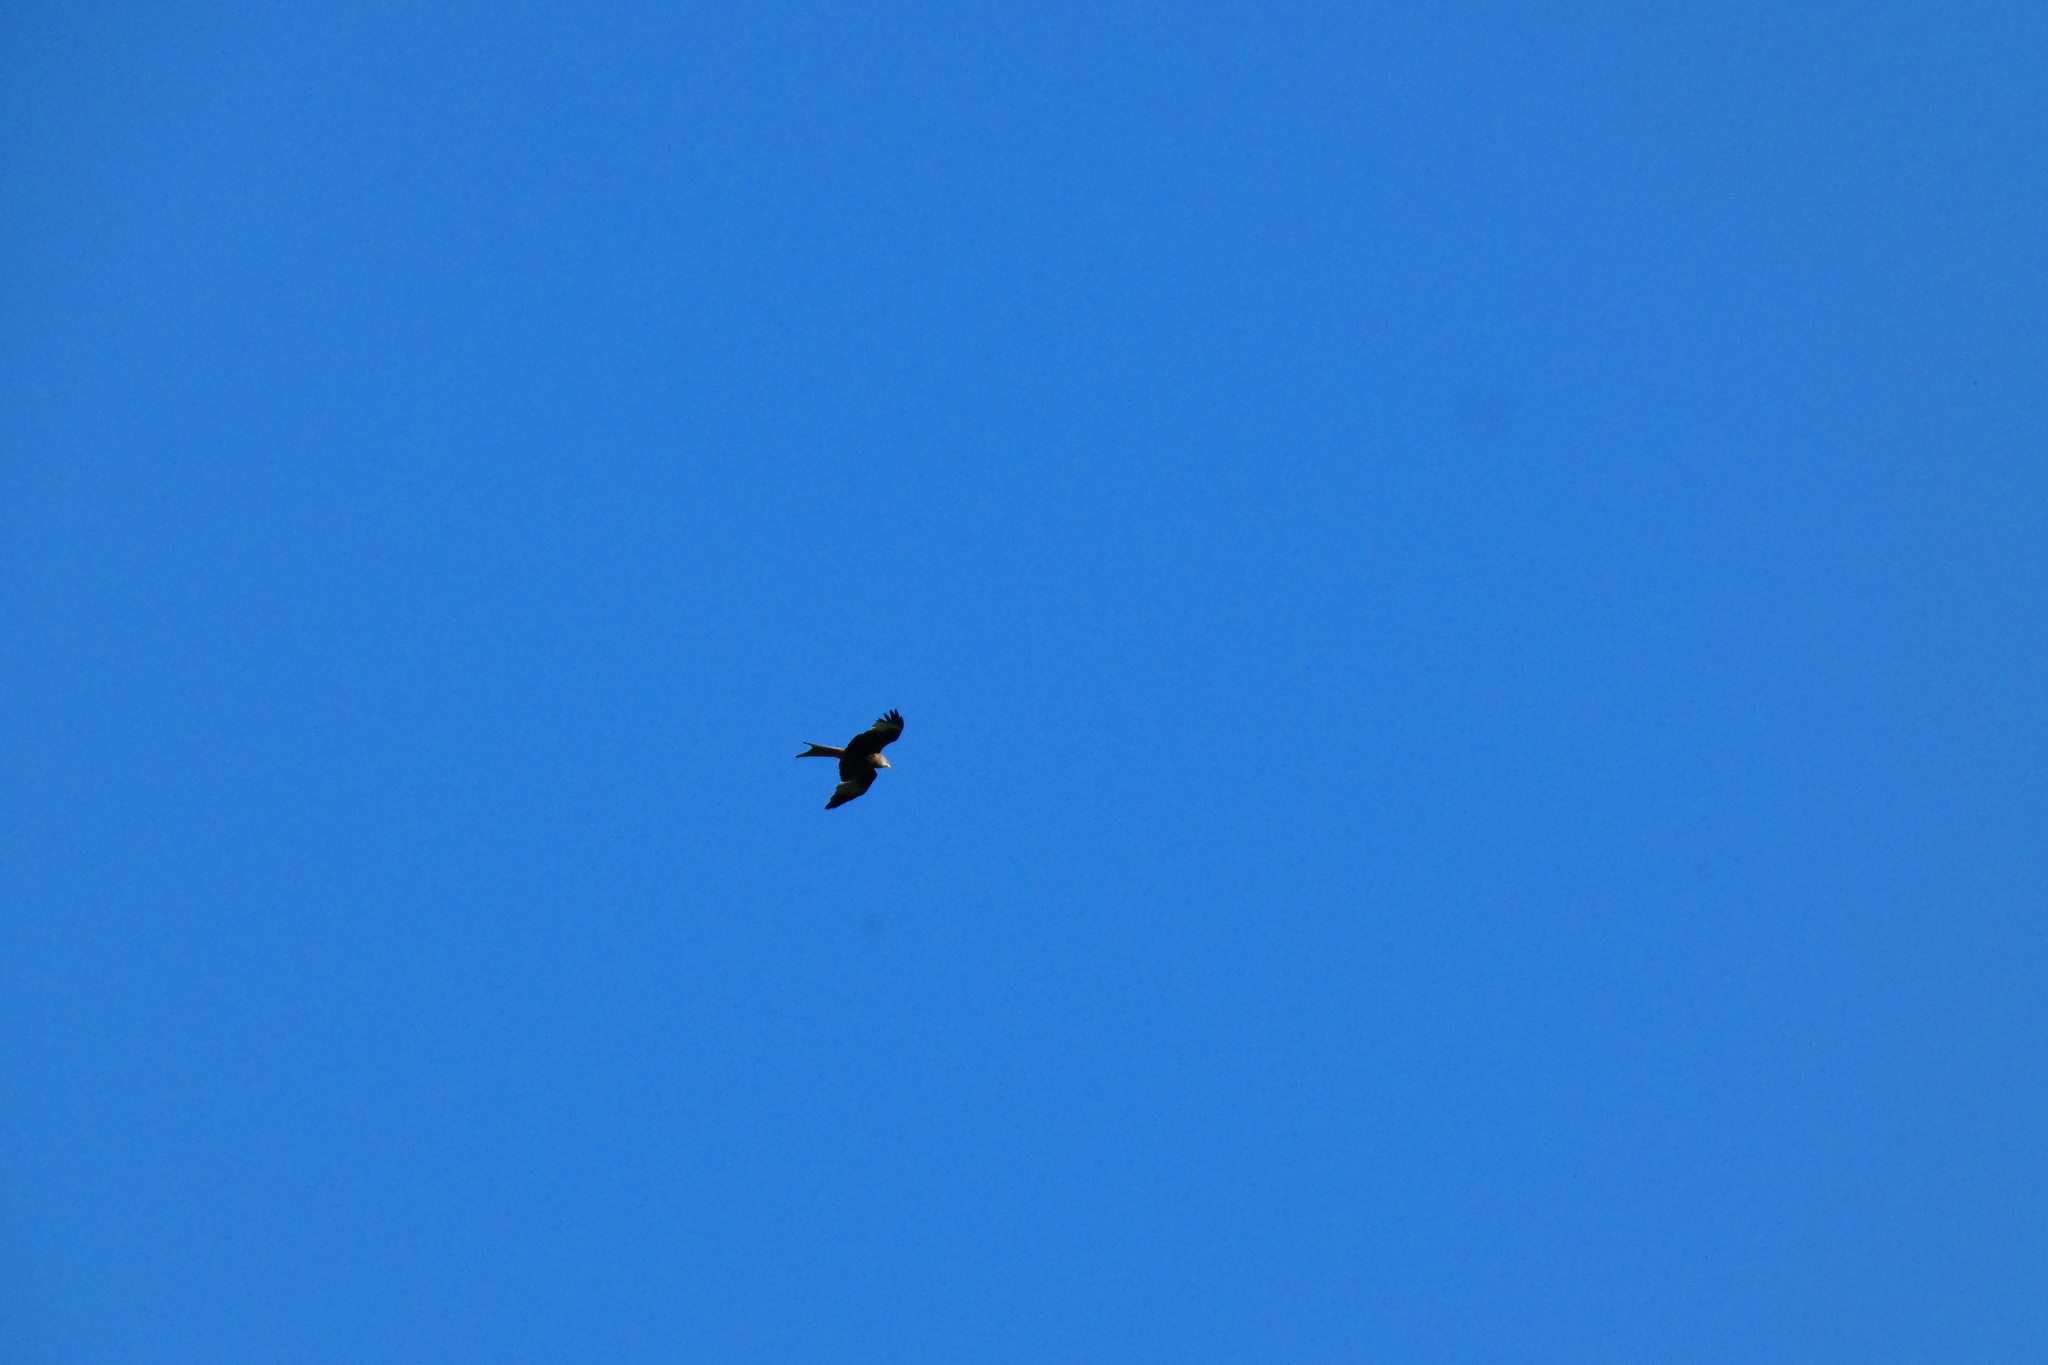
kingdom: Animalia
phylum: Chordata
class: Aves
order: Accipitriformes
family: Accipitridae
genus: Milvus
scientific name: Milvus milvus
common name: Red kite
